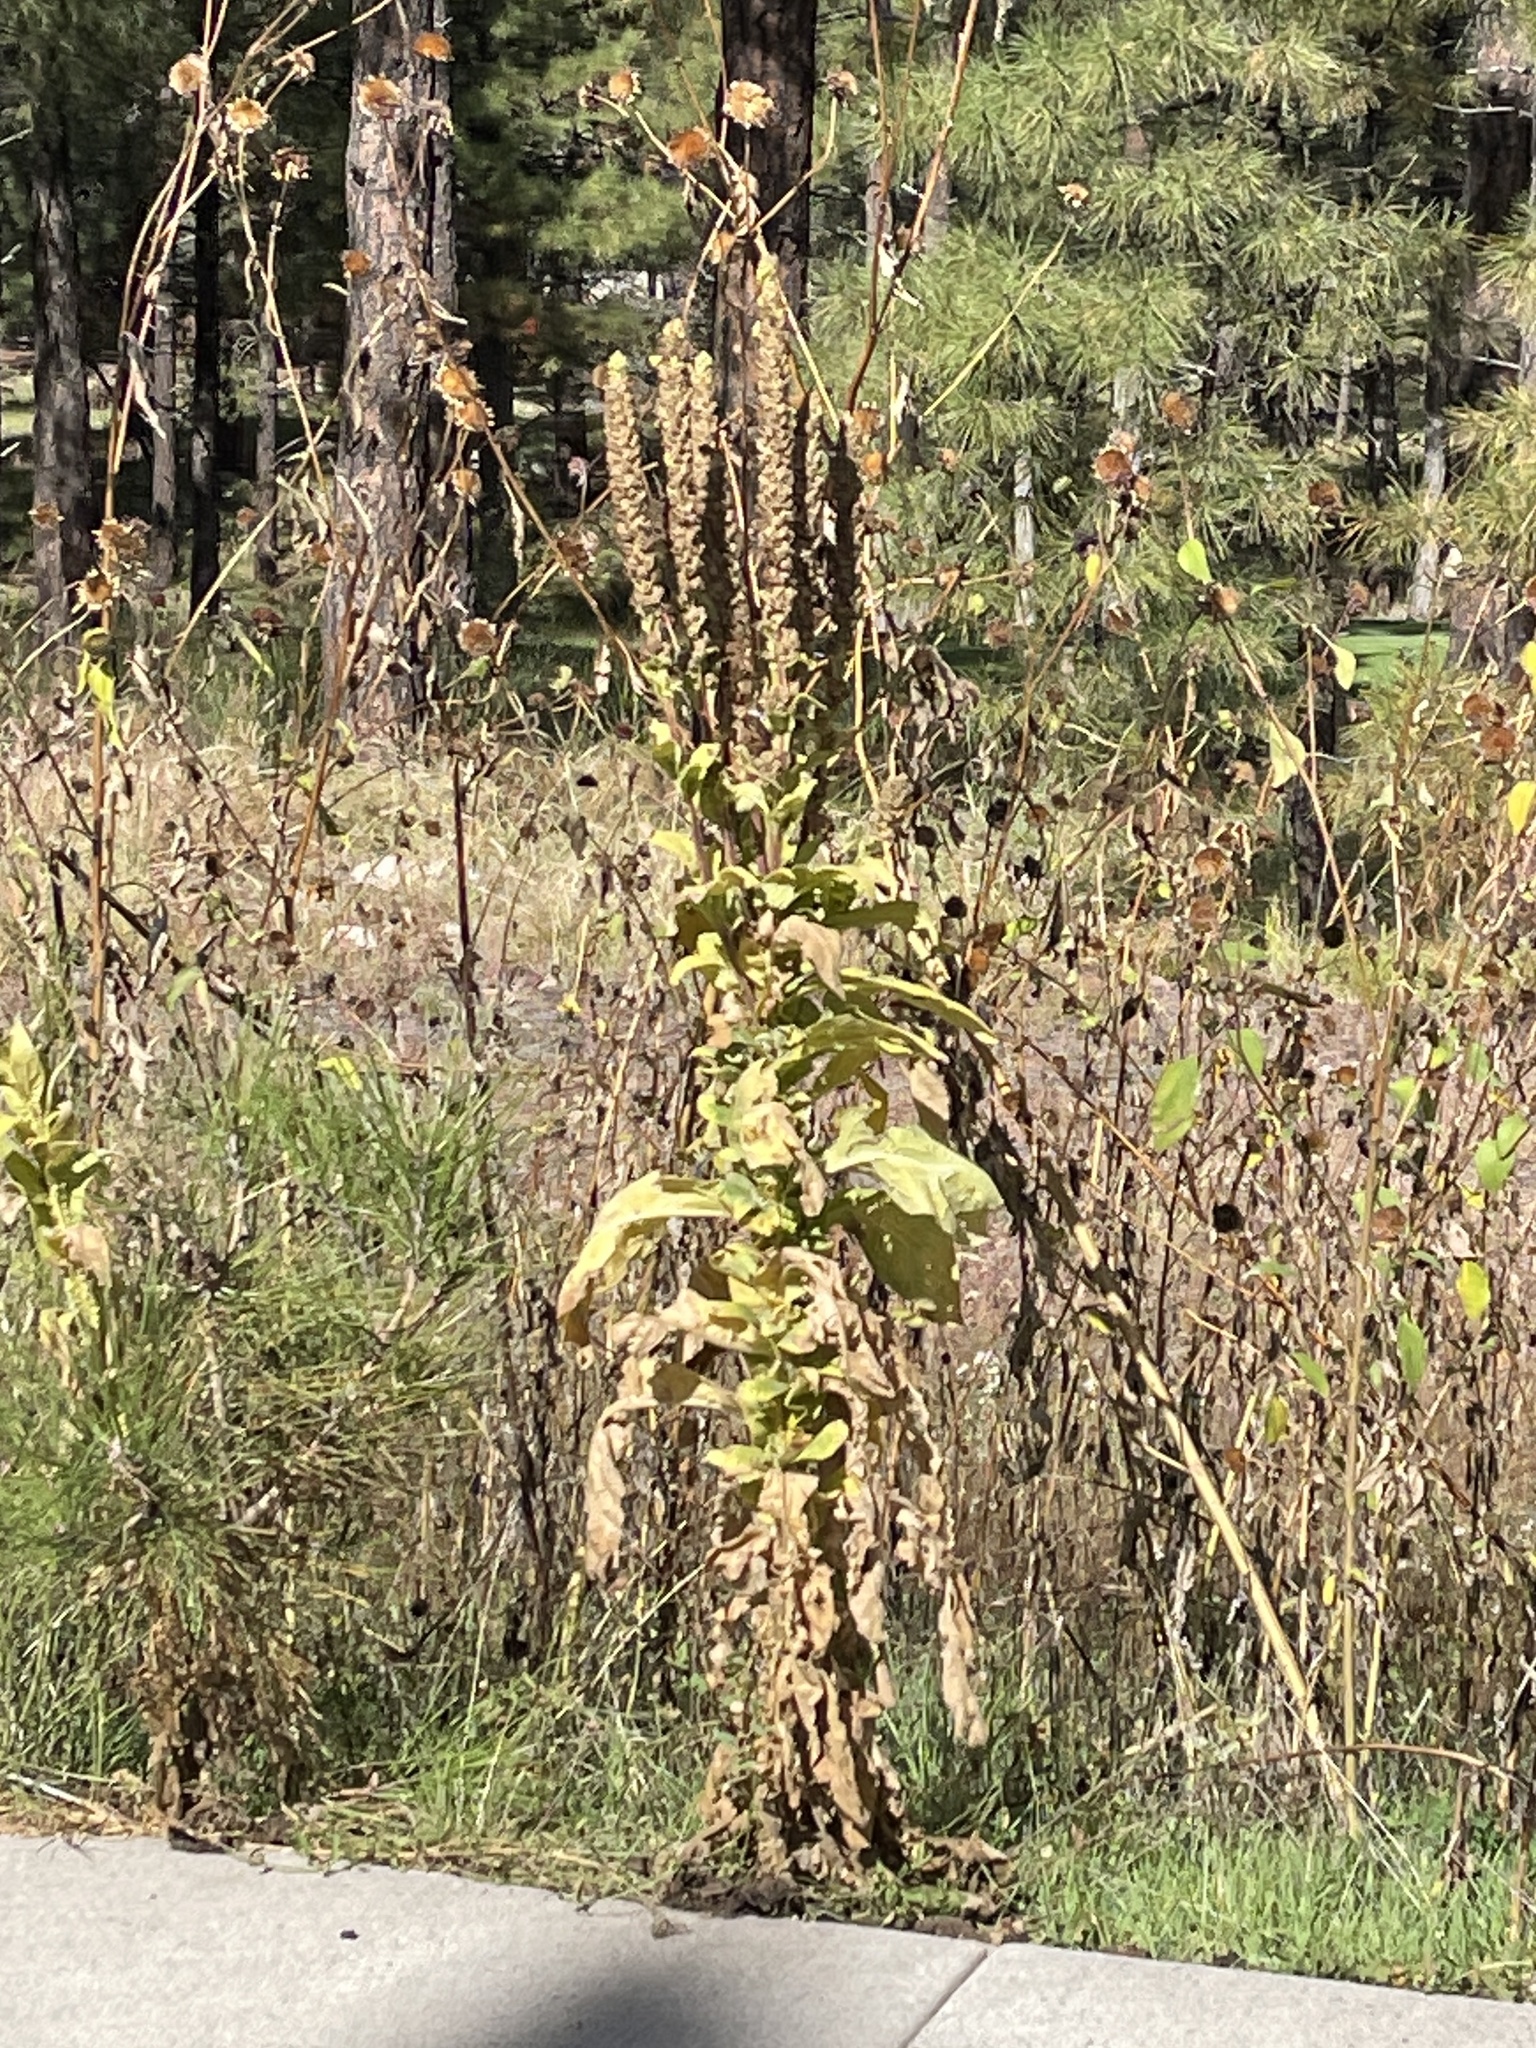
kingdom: Plantae
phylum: Tracheophyta
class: Magnoliopsida
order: Lamiales
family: Scrophulariaceae
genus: Verbascum
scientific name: Verbascum thapsus
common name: Common mullein
